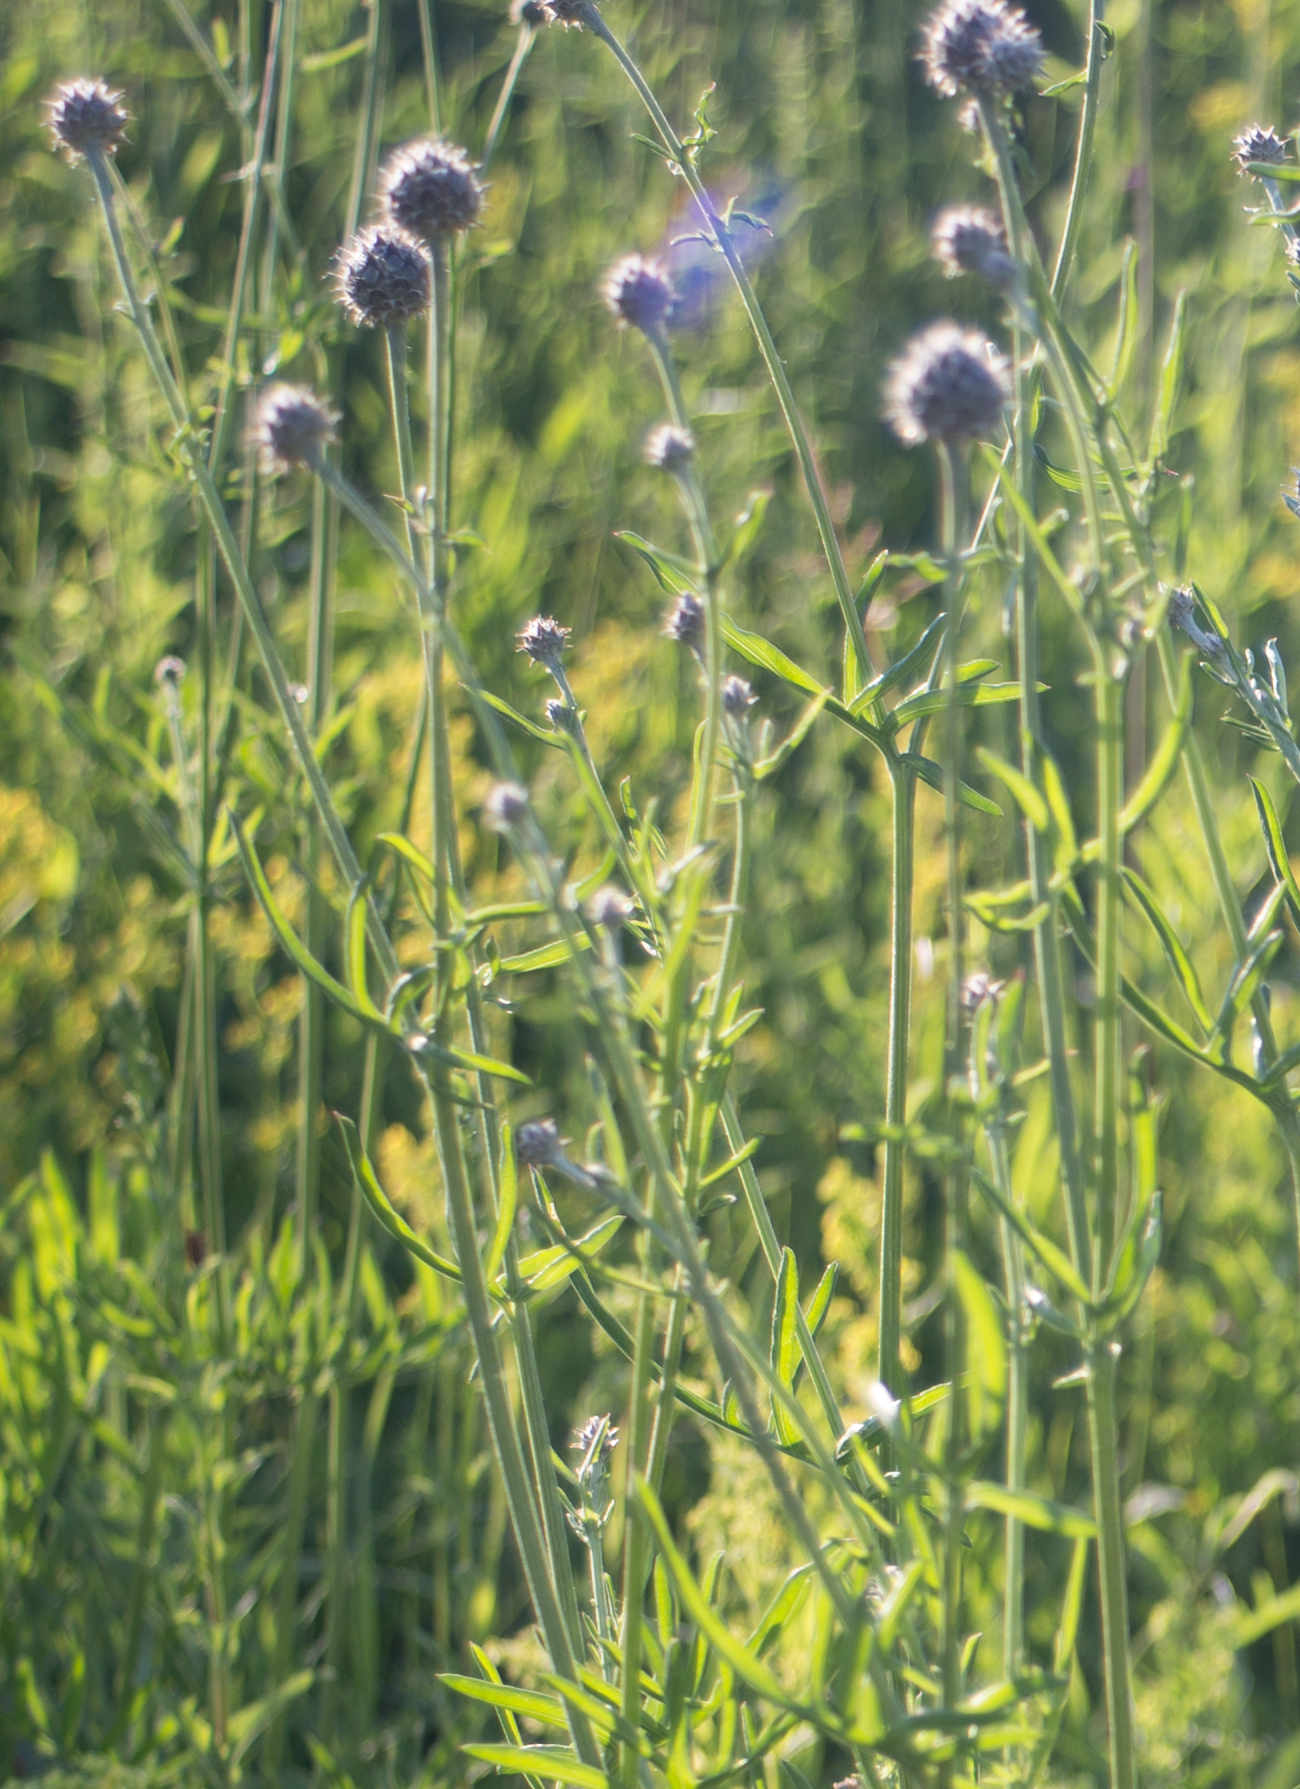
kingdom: Plantae
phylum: Tracheophyta
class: Magnoliopsida
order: Asterales
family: Asteraceae
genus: Centaurea
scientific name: Centaurea scabiosa
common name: Greater knapweed
